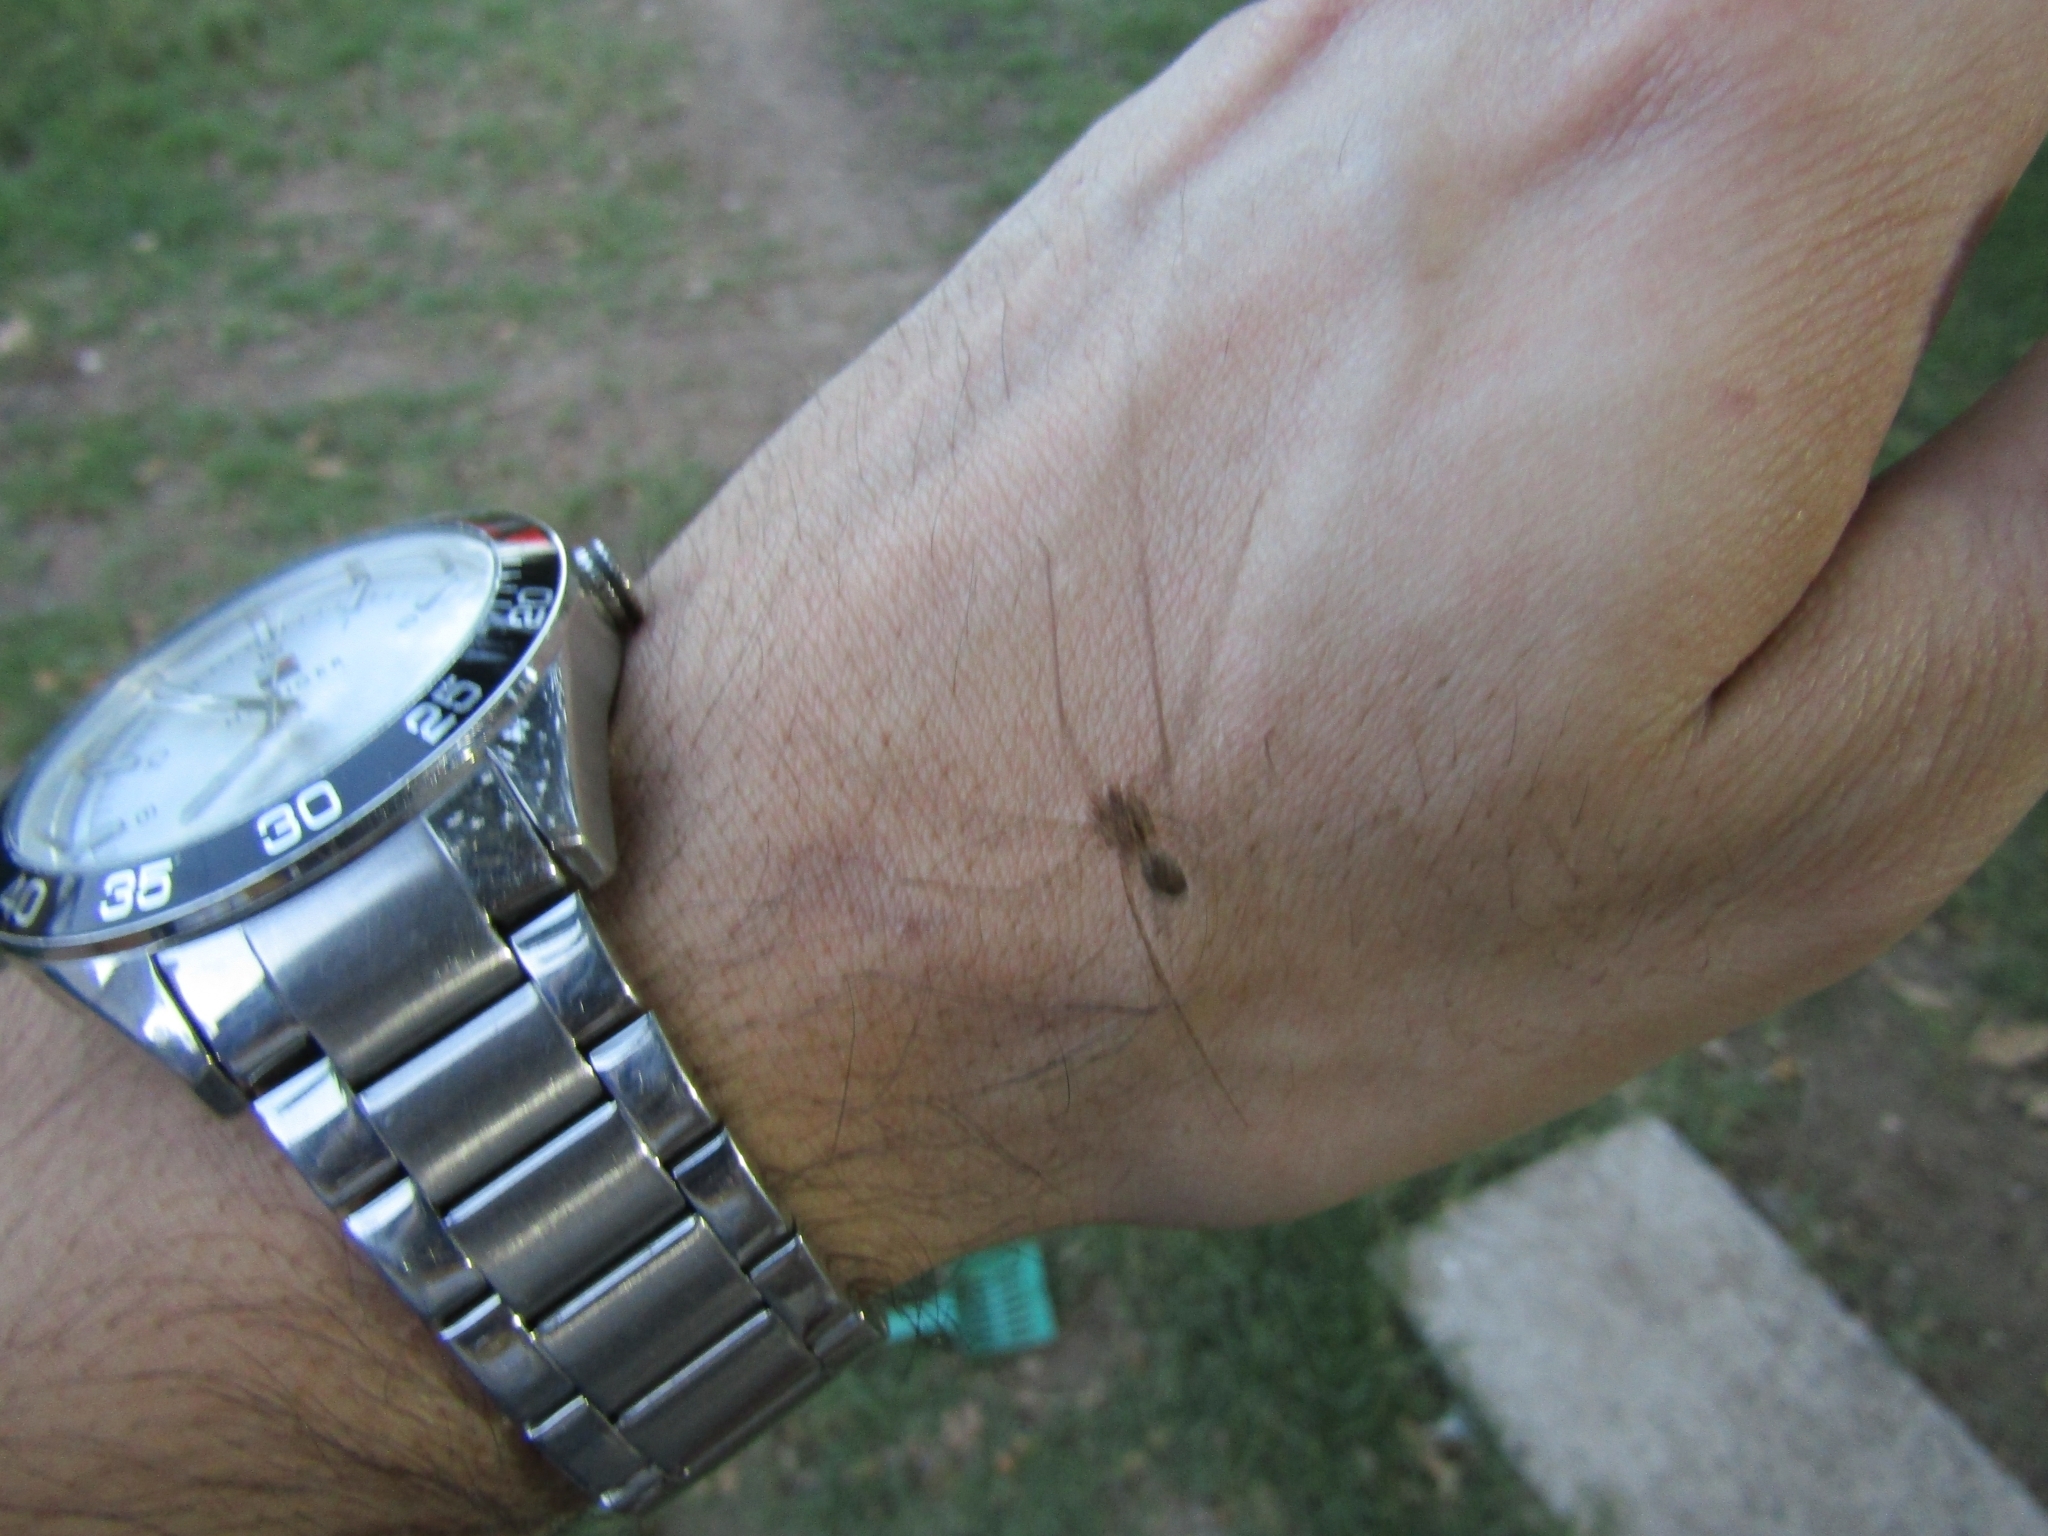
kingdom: Animalia
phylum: Arthropoda
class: Arachnida
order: Araneae
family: Scytodidae
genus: Scytodes
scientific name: Scytodes globula
